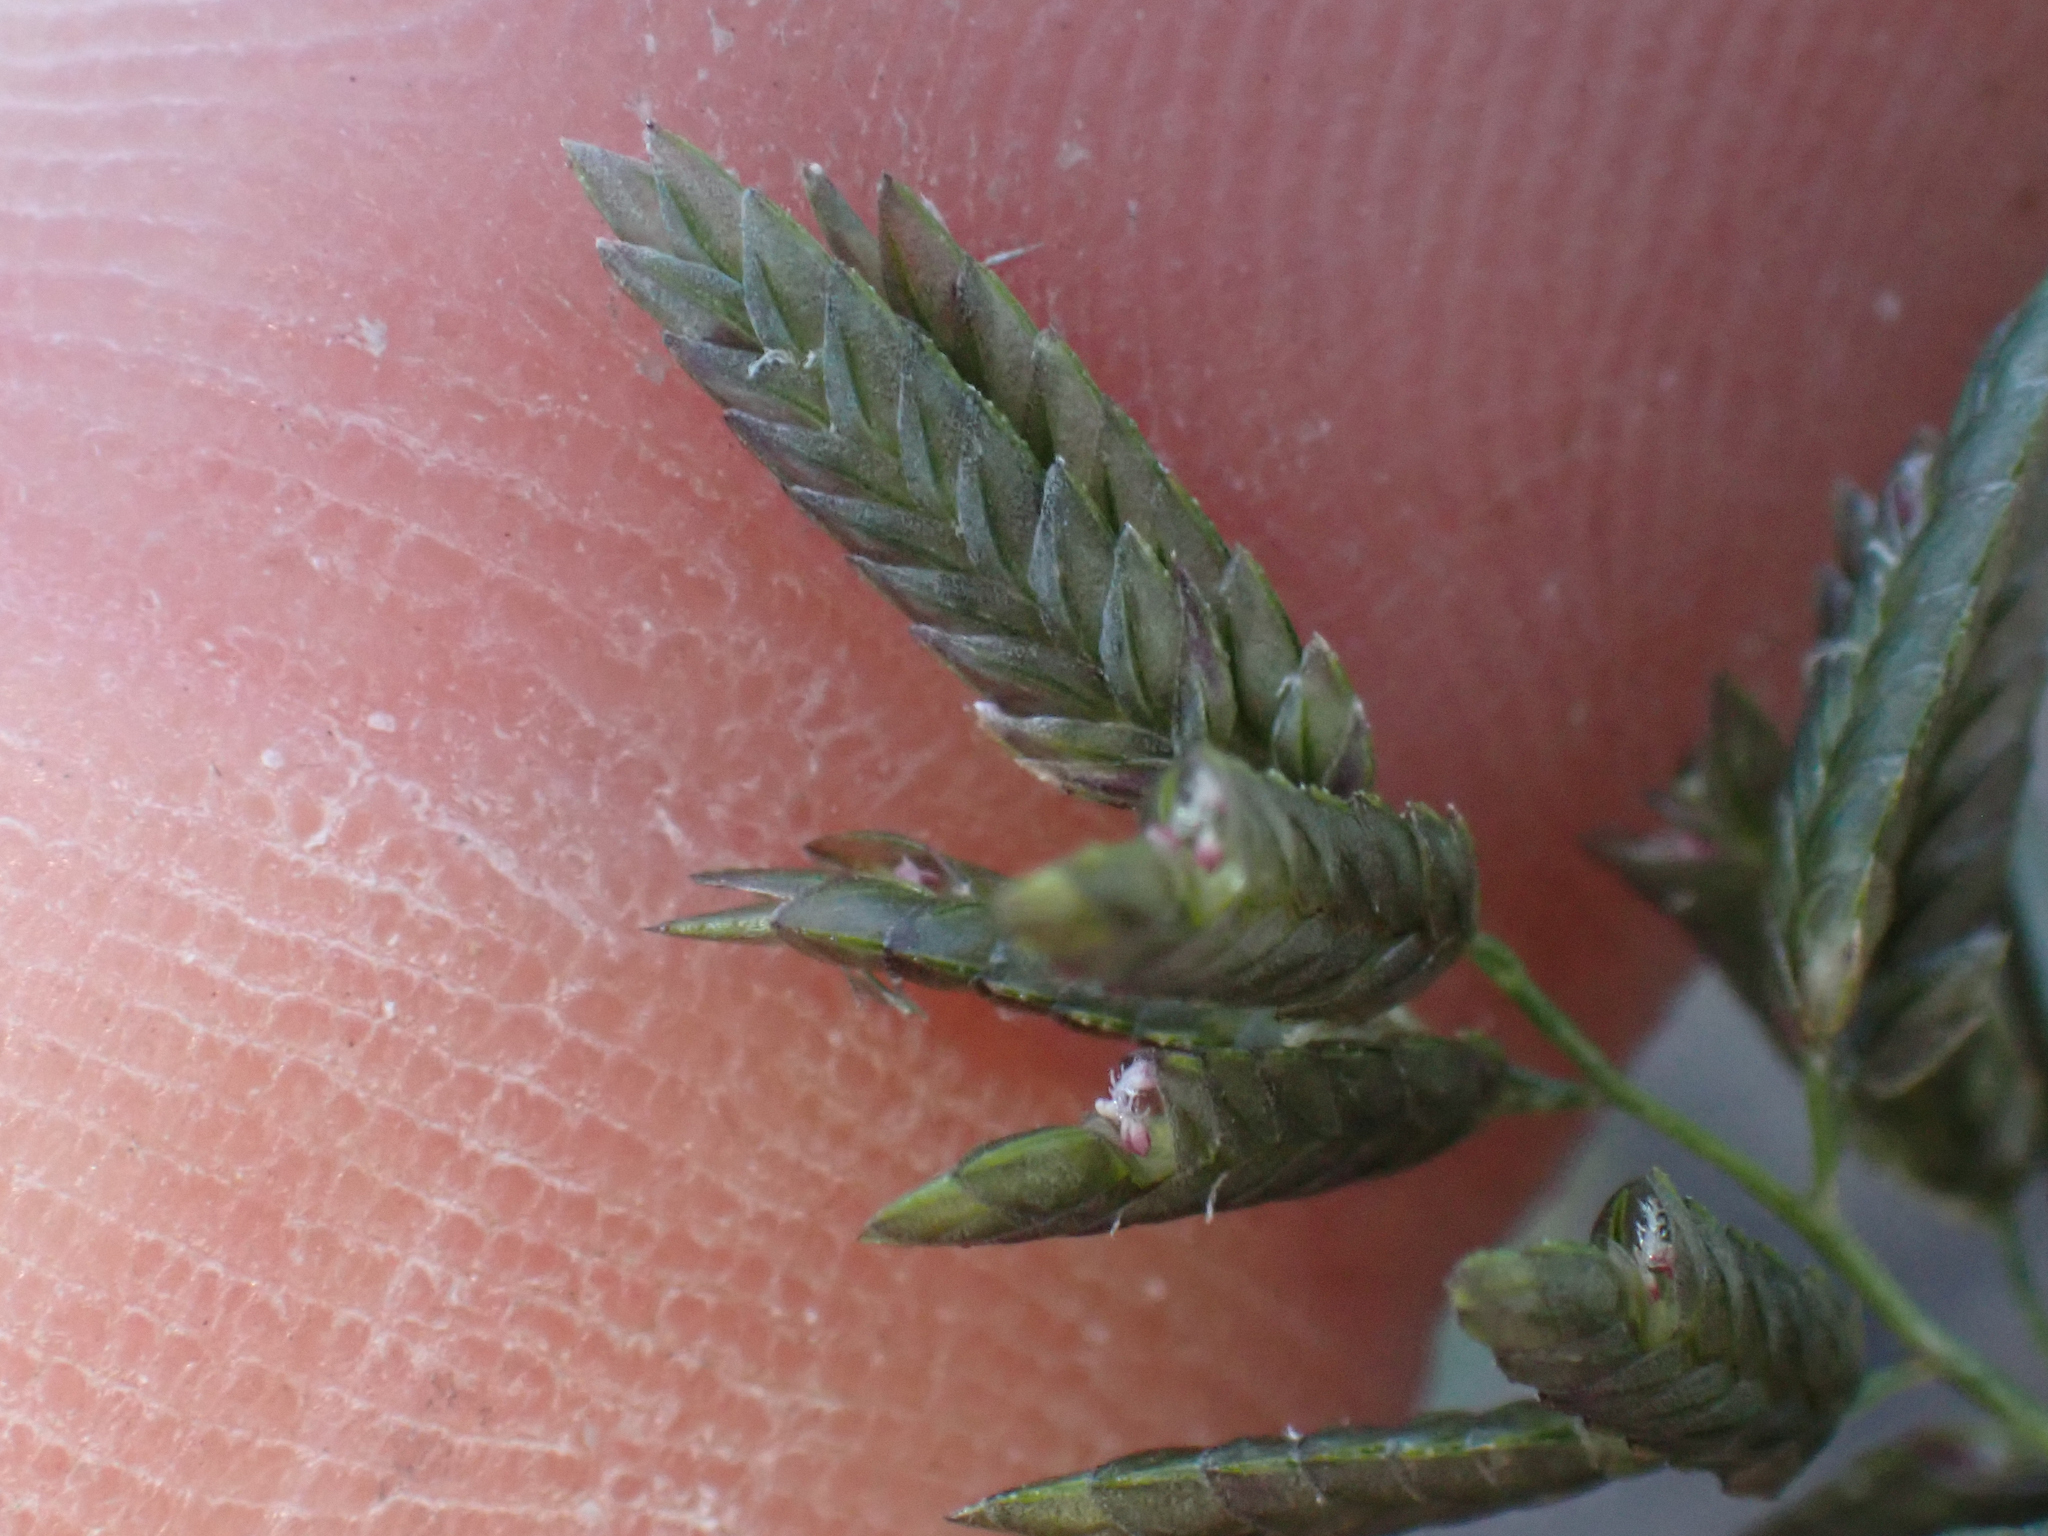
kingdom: Plantae
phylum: Tracheophyta
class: Liliopsida
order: Poales
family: Poaceae
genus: Eragrostis
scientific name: Eragrostis cilianensis
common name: Stinkgrass
